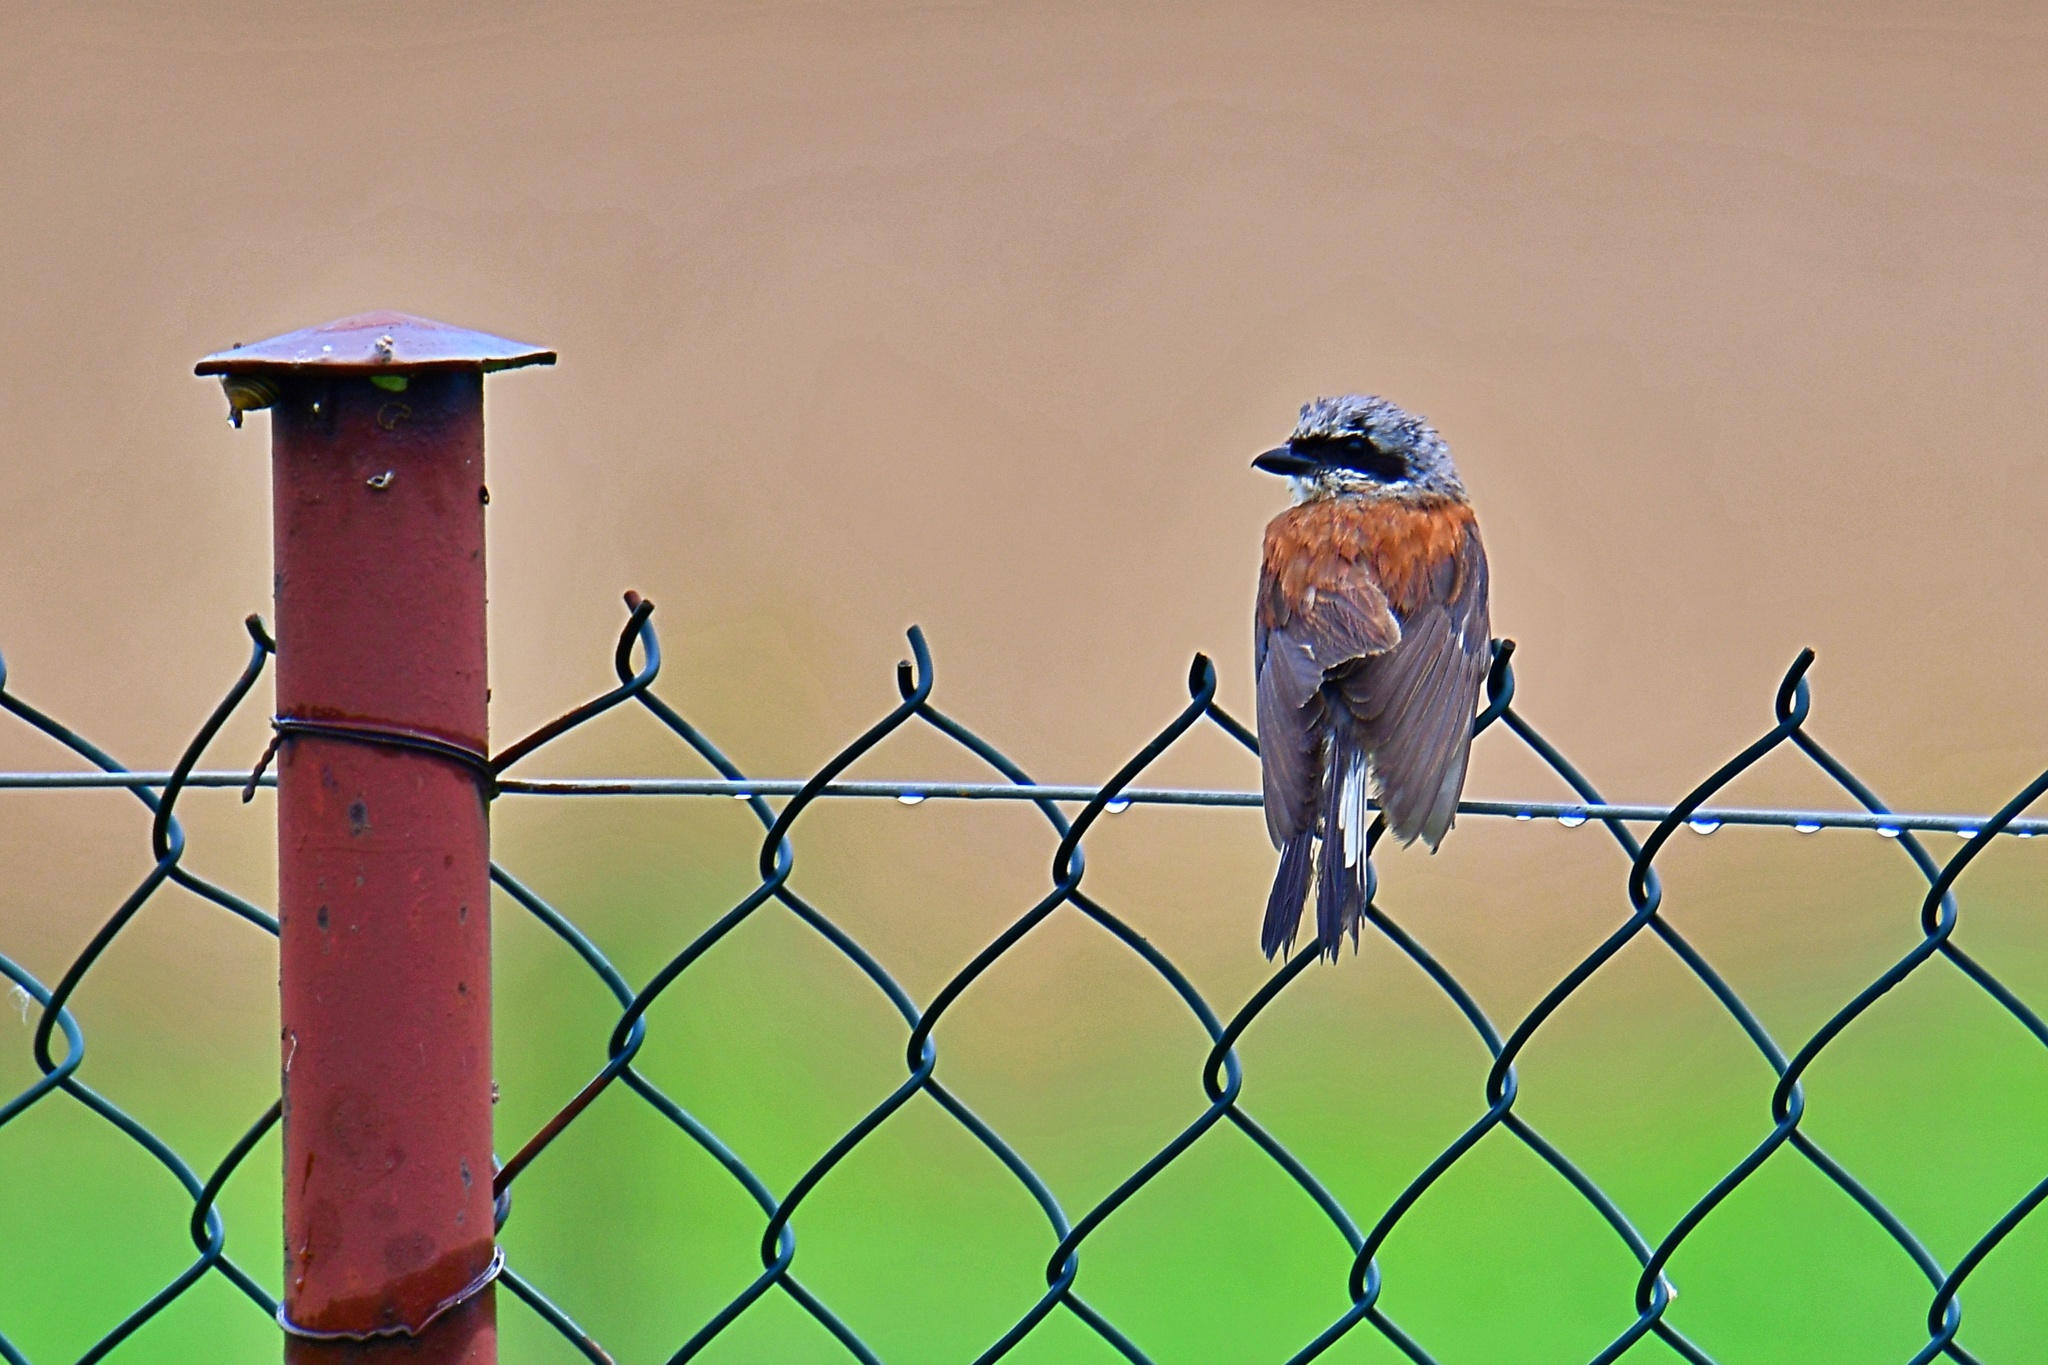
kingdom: Animalia
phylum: Chordata
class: Aves
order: Passeriformes
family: Laniidae
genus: Lanius
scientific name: Lanius collurio
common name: Red-backed shrike
